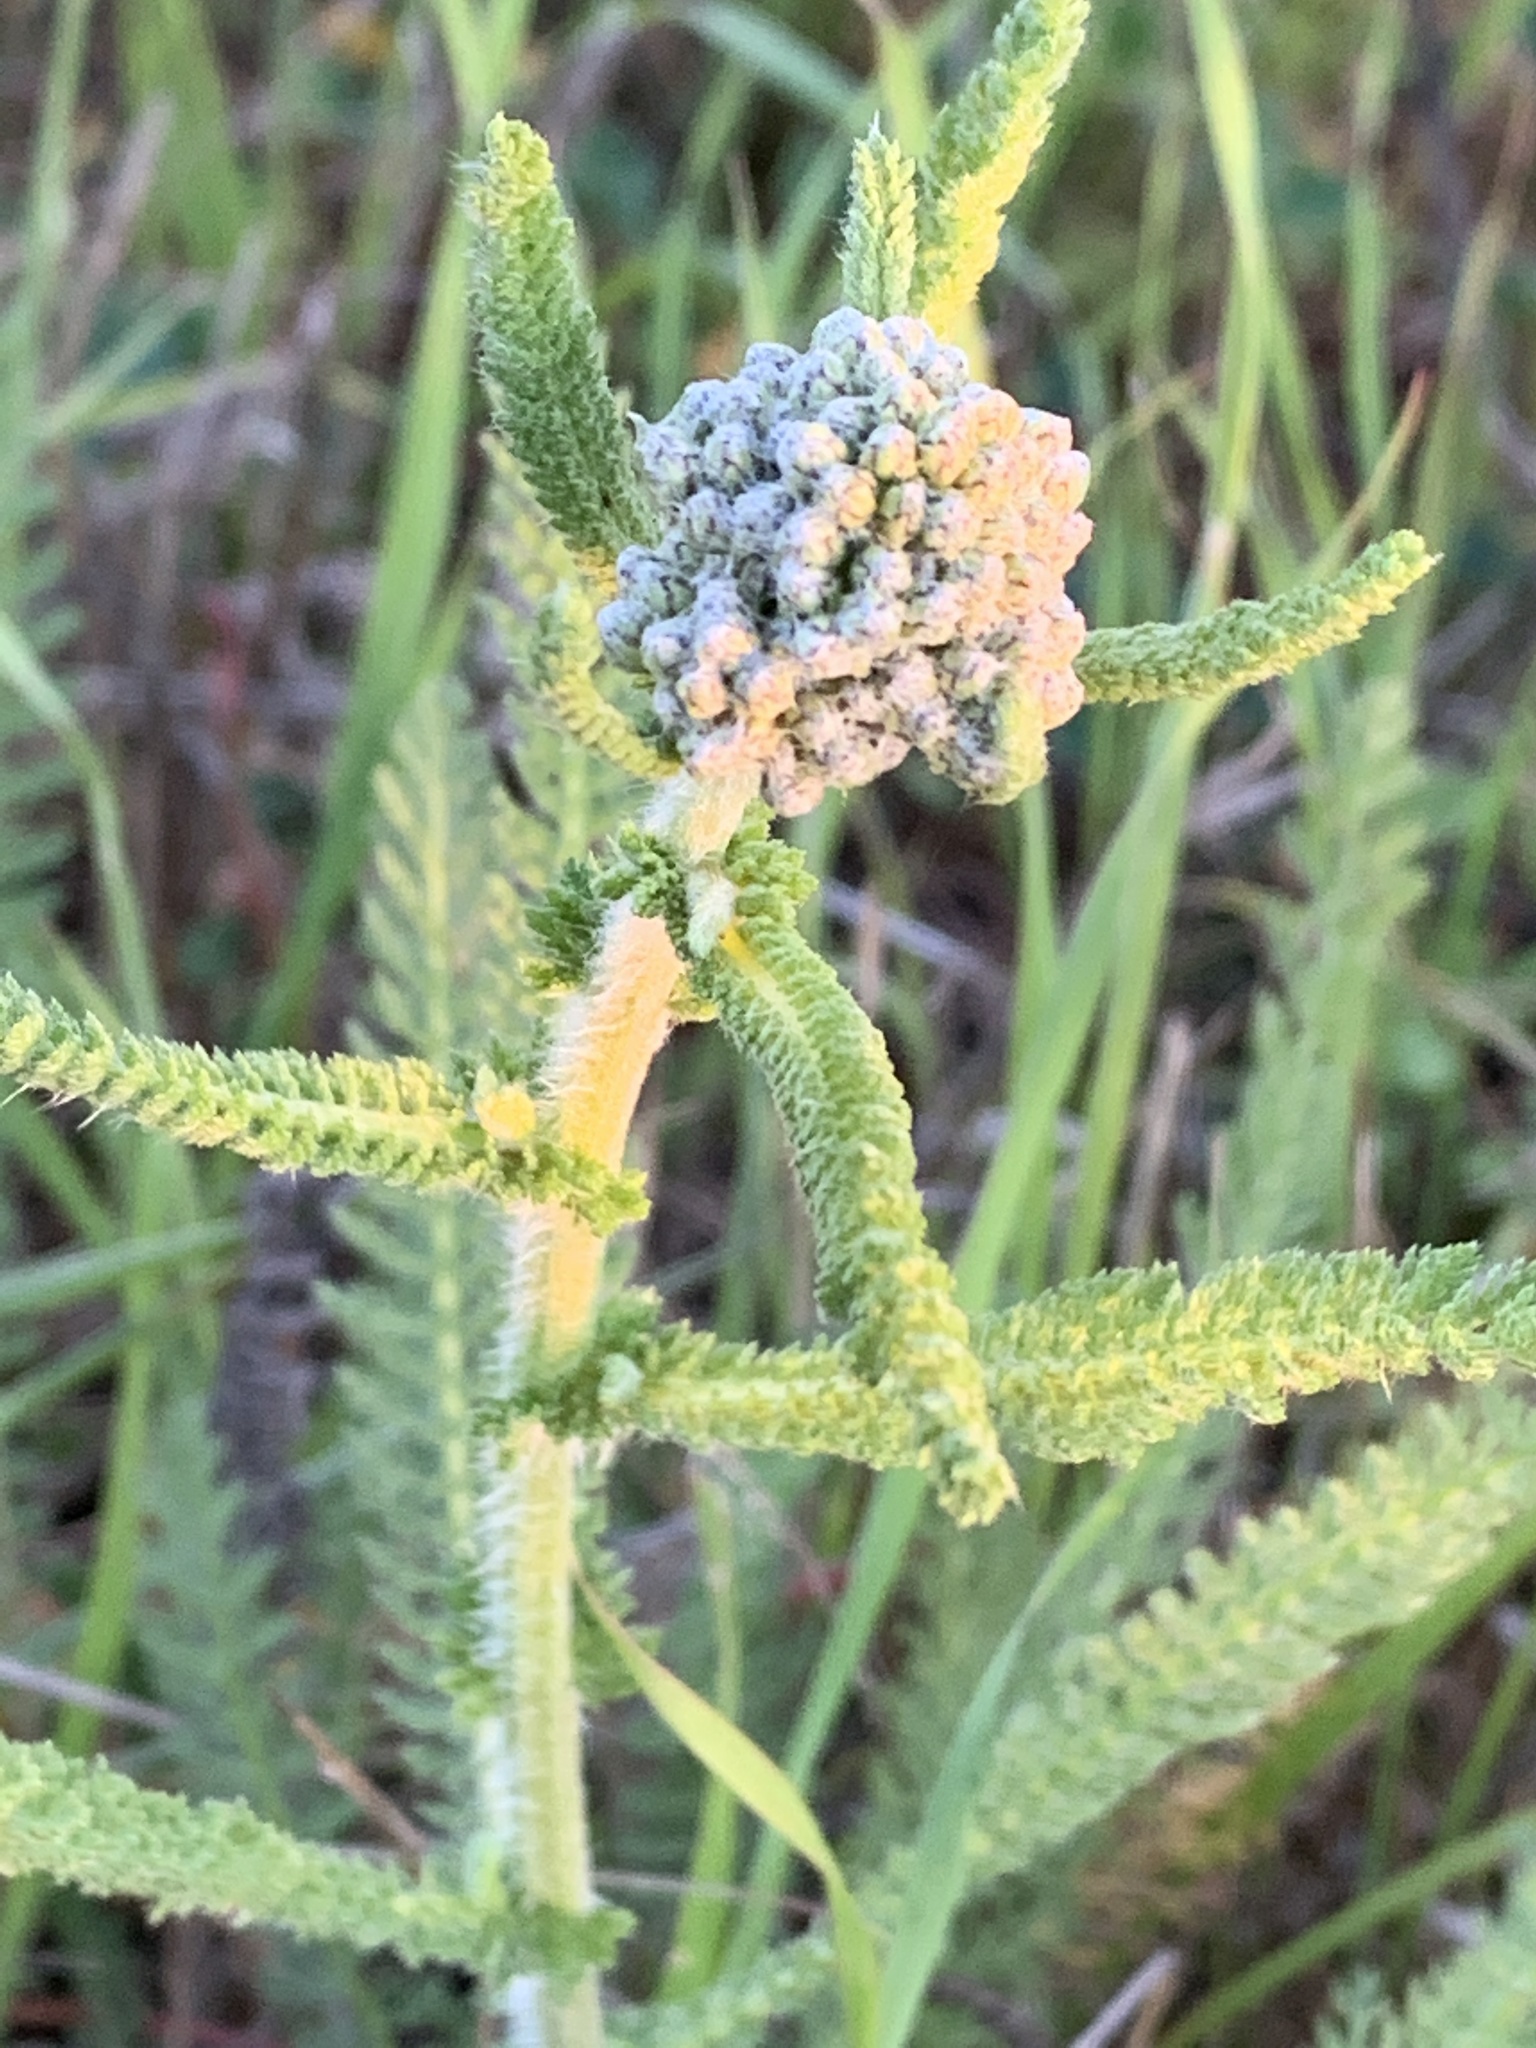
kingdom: Plantae
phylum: Tracheophyta
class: Magnoliopsida
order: Asterales
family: Asteraceae
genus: Achillea
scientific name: Achillea millefolium
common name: Yarrow
